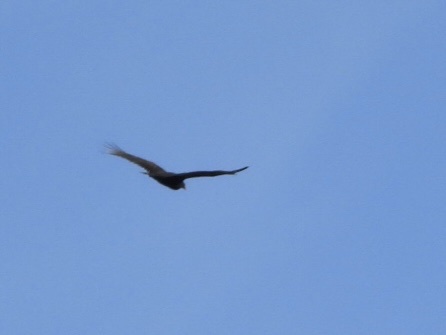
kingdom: Animalia
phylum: Chordata
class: Aves
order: Accipitriformes
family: Cathartidae
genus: Cathartes
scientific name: Cathartes aura
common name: Turkey vulture
